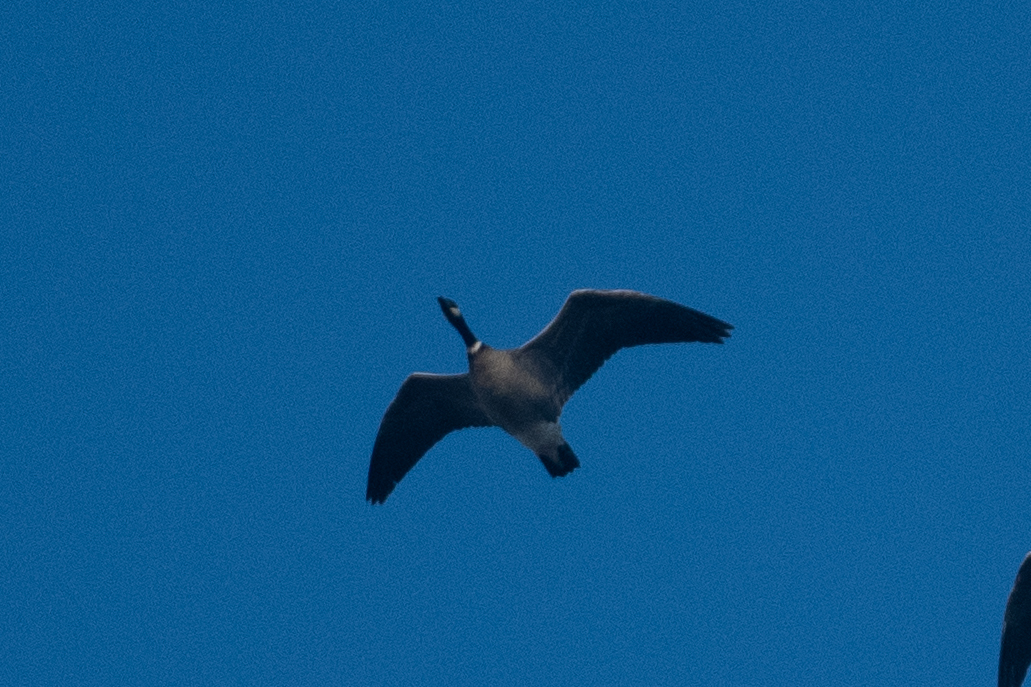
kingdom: Animalia
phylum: Chordata
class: Aves
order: Anseriformes
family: Anatidae
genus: Branta
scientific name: Branta hutchinsii
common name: Cackling goose
